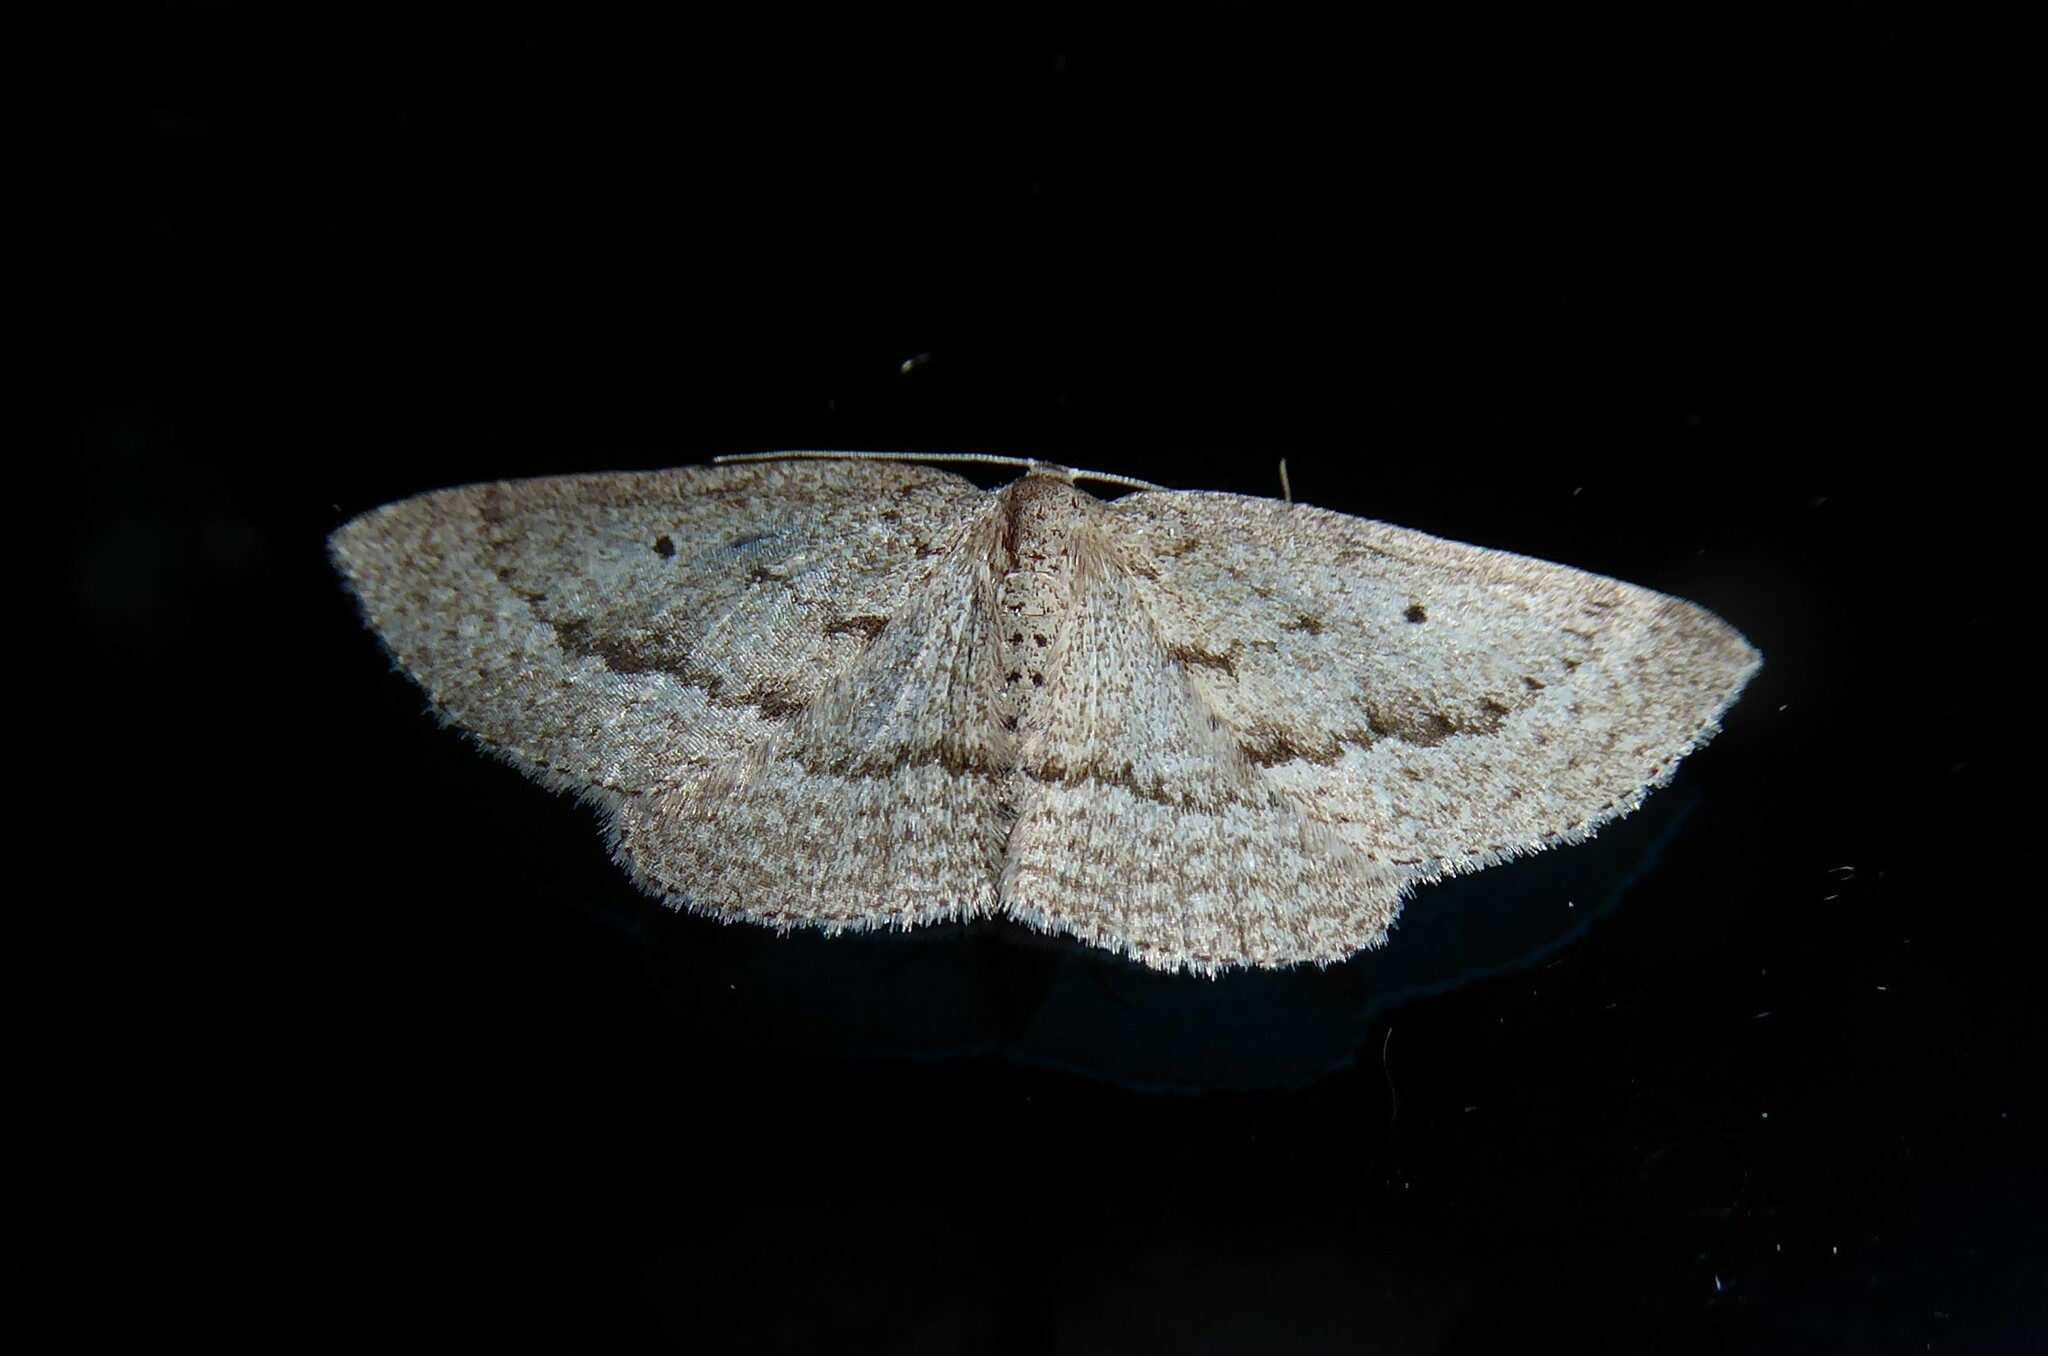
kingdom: Animalia
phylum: Arthropoda
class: Insecta
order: Lepidoptera
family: Geometridae
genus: Poecilasthena
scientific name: Poecilasthena schistaria
